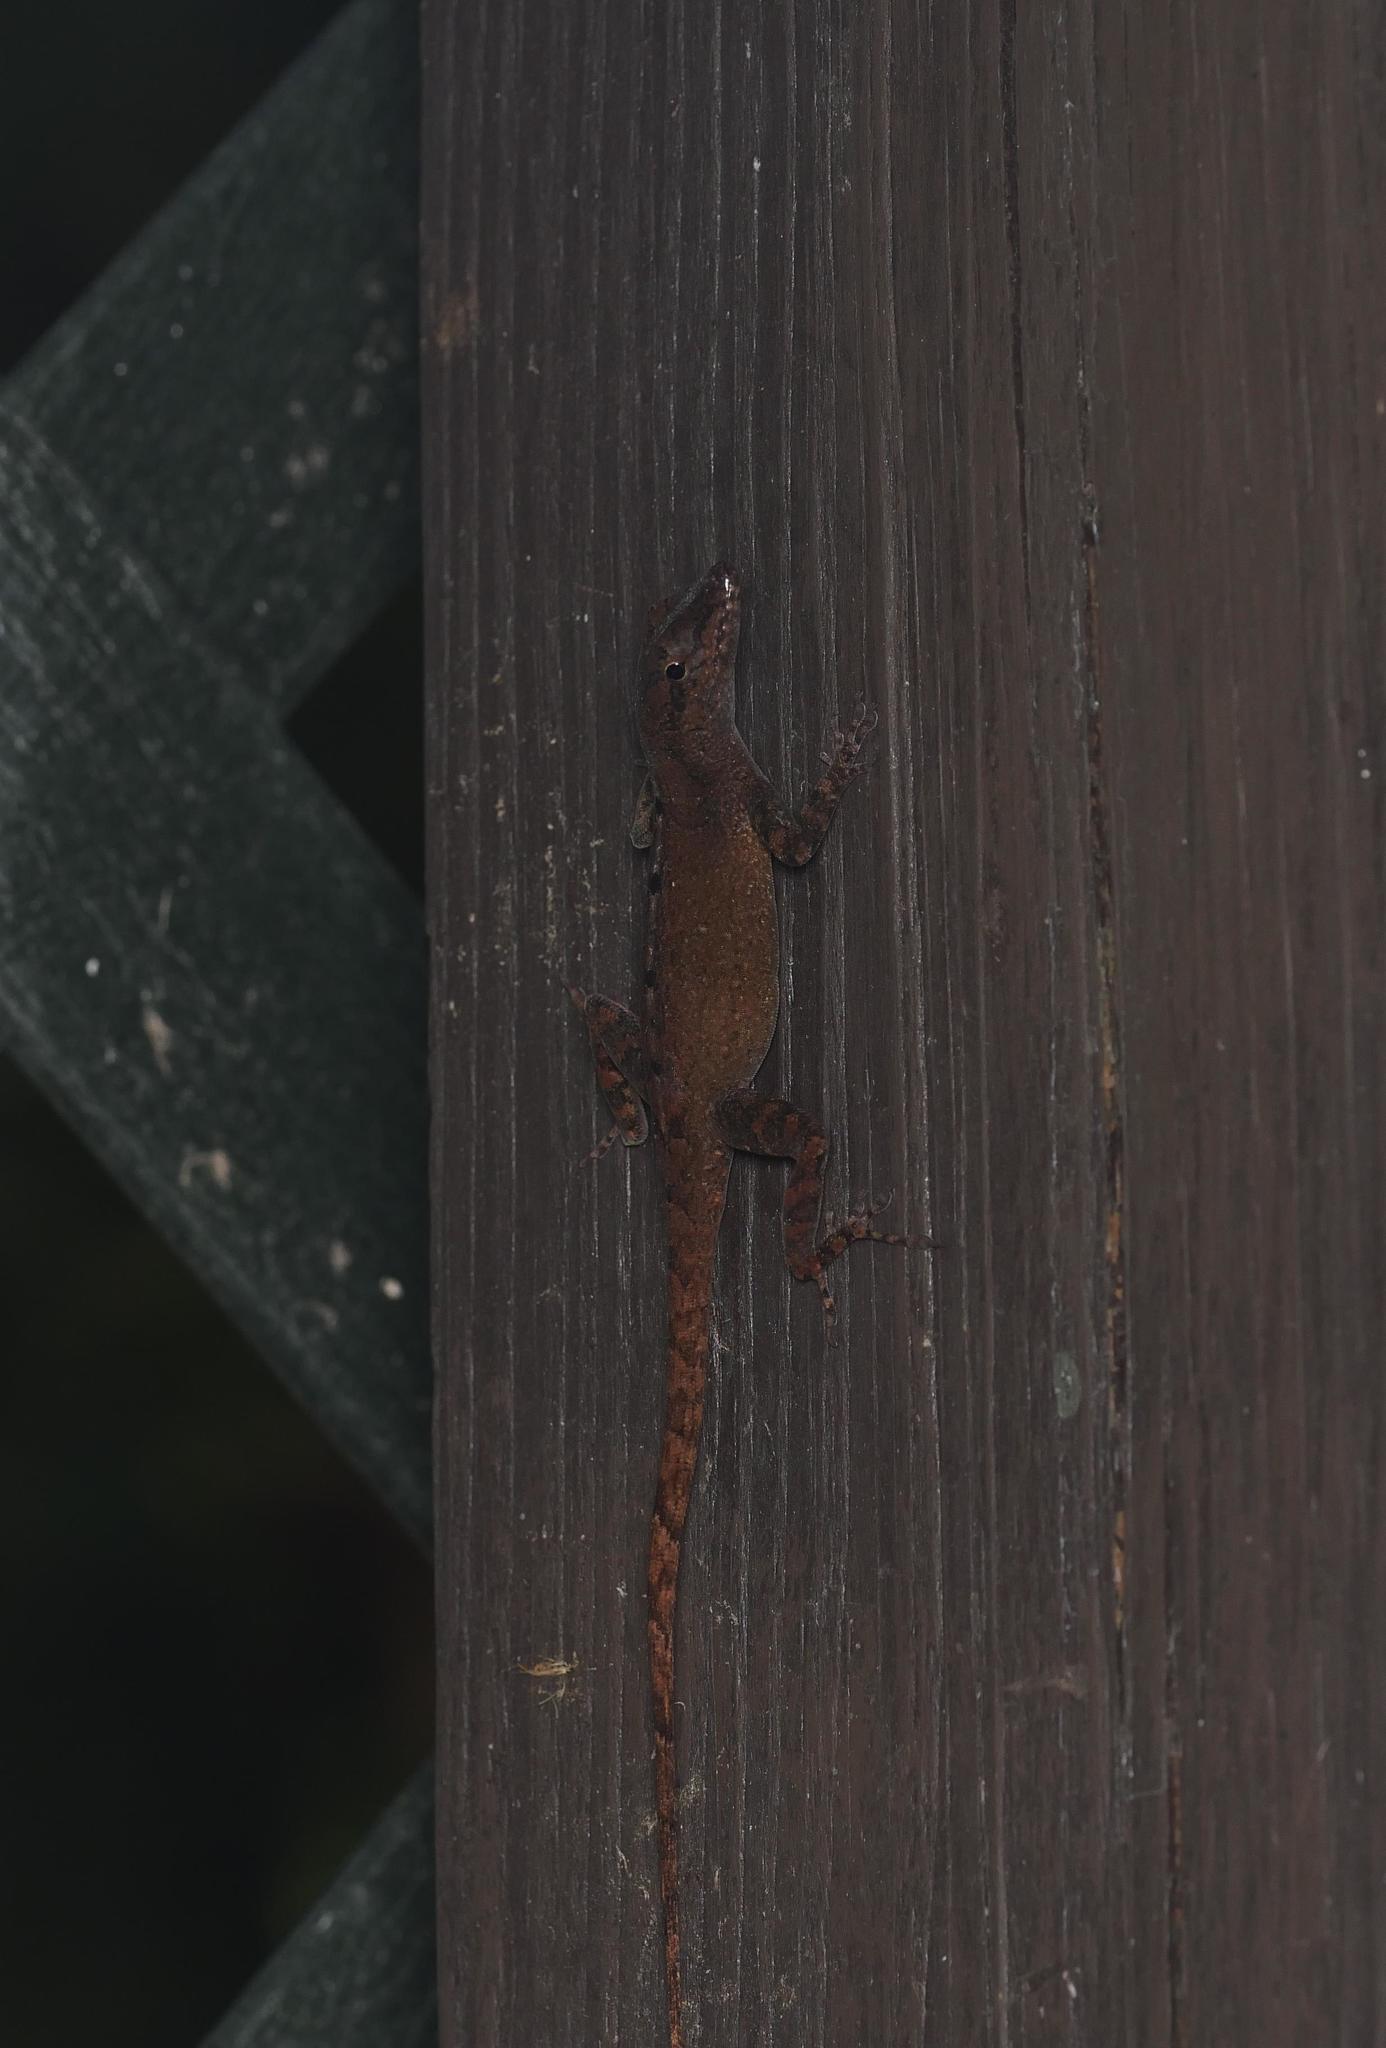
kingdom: Animalia
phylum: Chordata
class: Squamata
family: Dactyloidae
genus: Anolis
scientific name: Anolis scriptus
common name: Silver key anole
